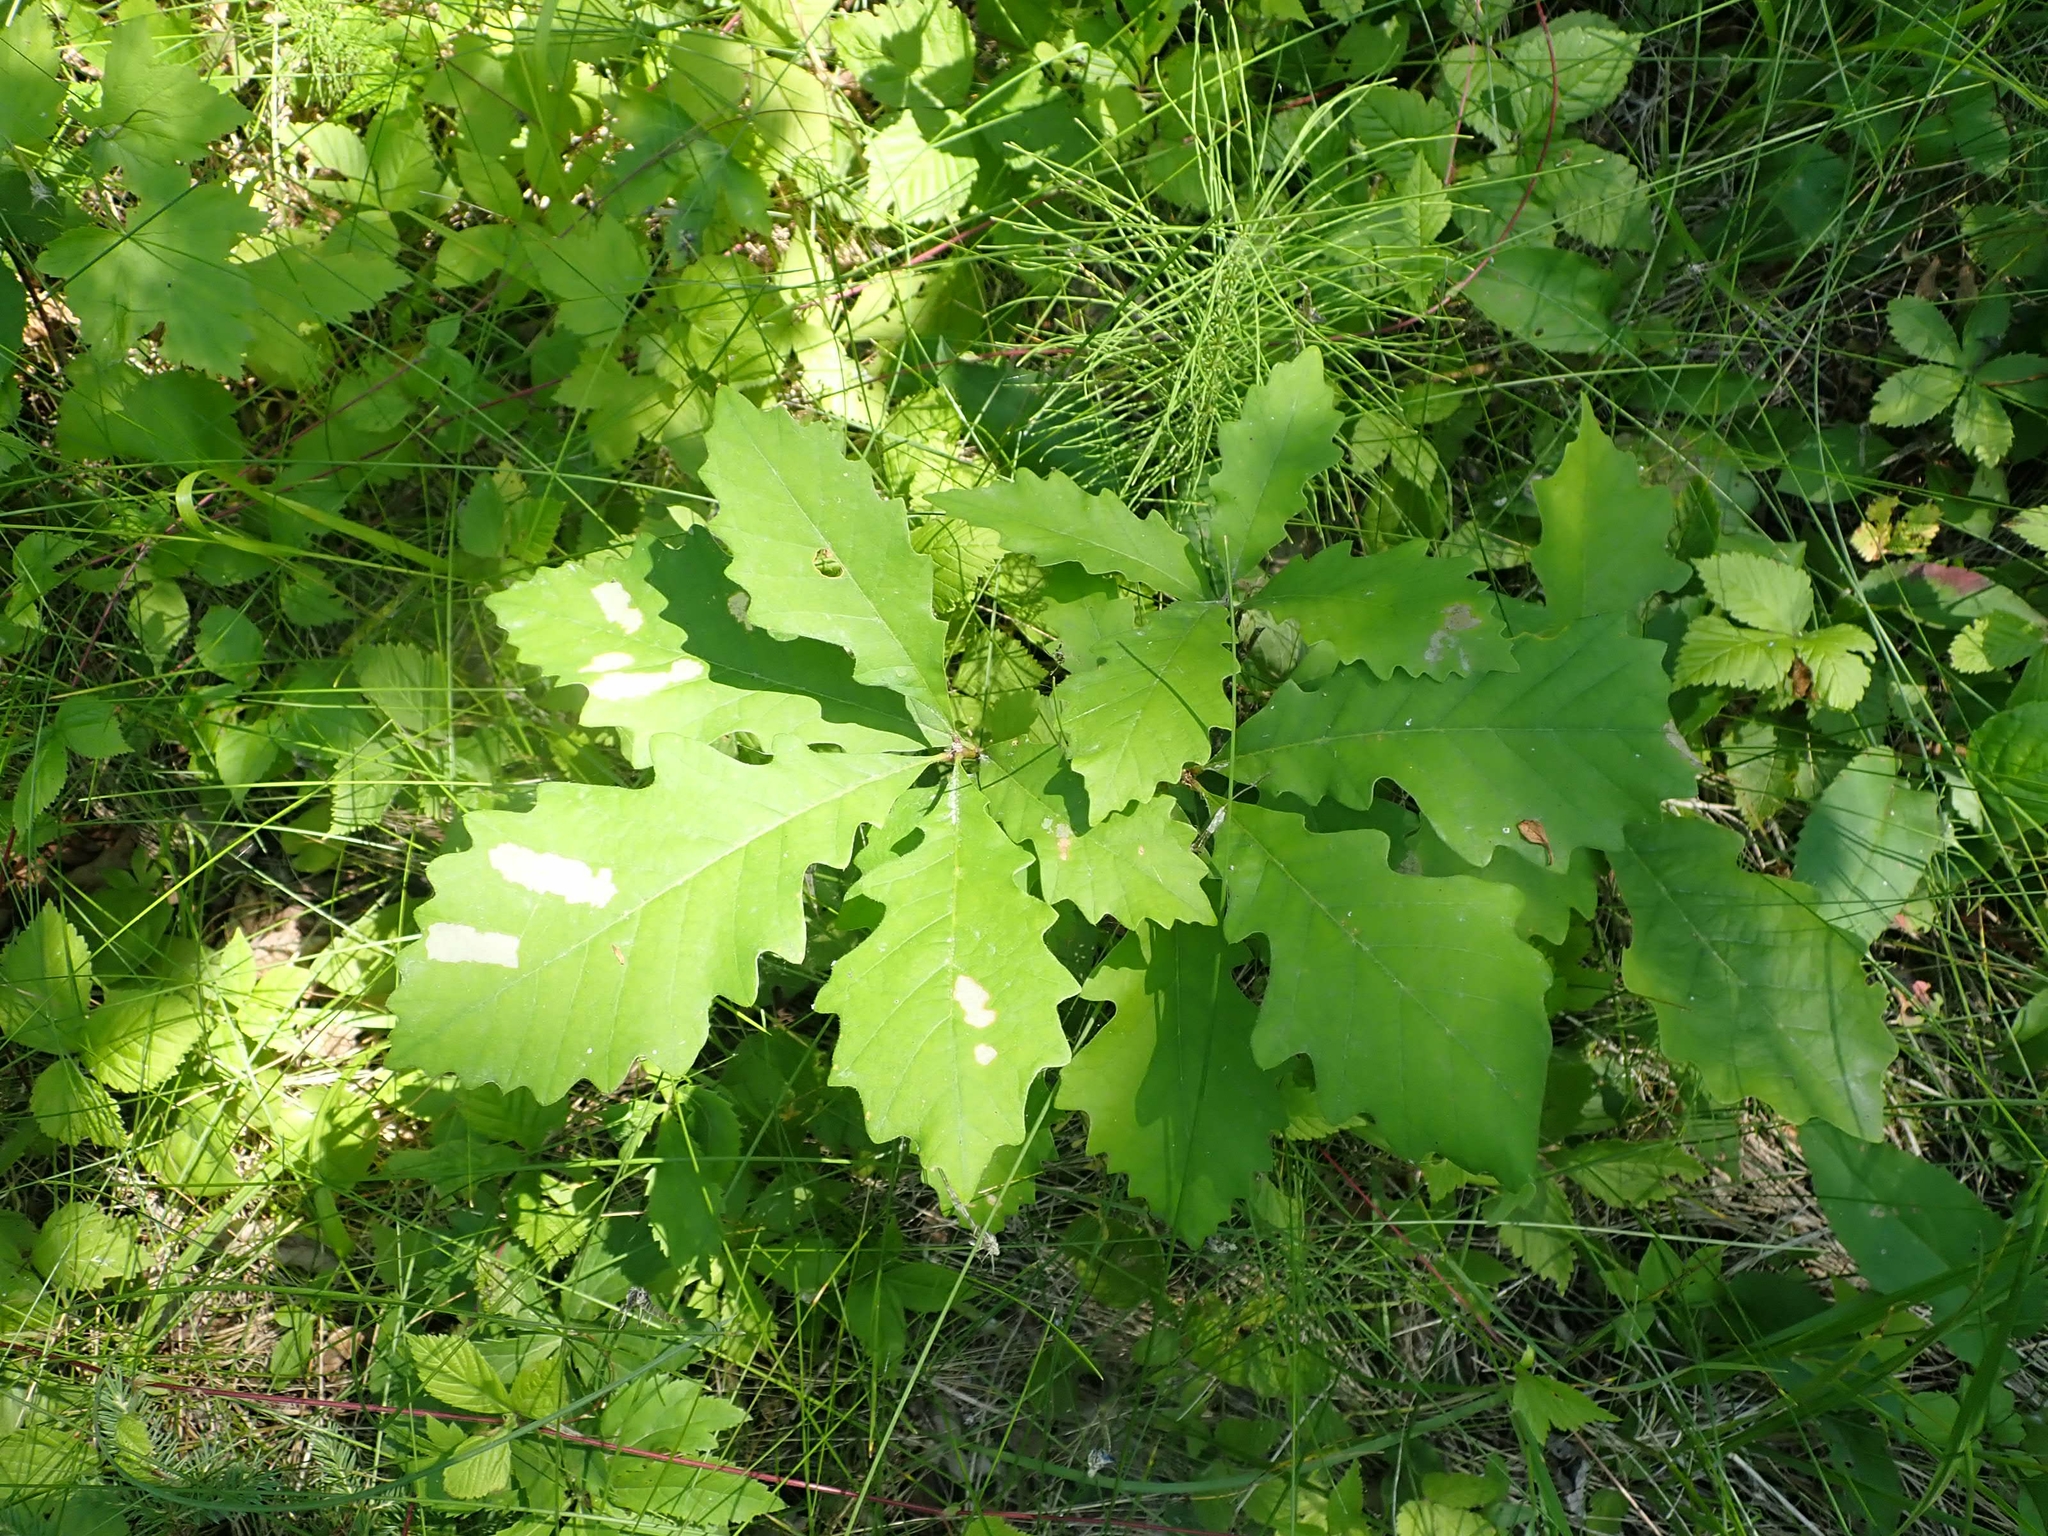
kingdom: Plantae
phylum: Tracheophyta
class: Magnoliopsida
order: Fagales
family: Fagaceae
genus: Quercus
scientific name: Quercus macrocarpa
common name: Bur oak
